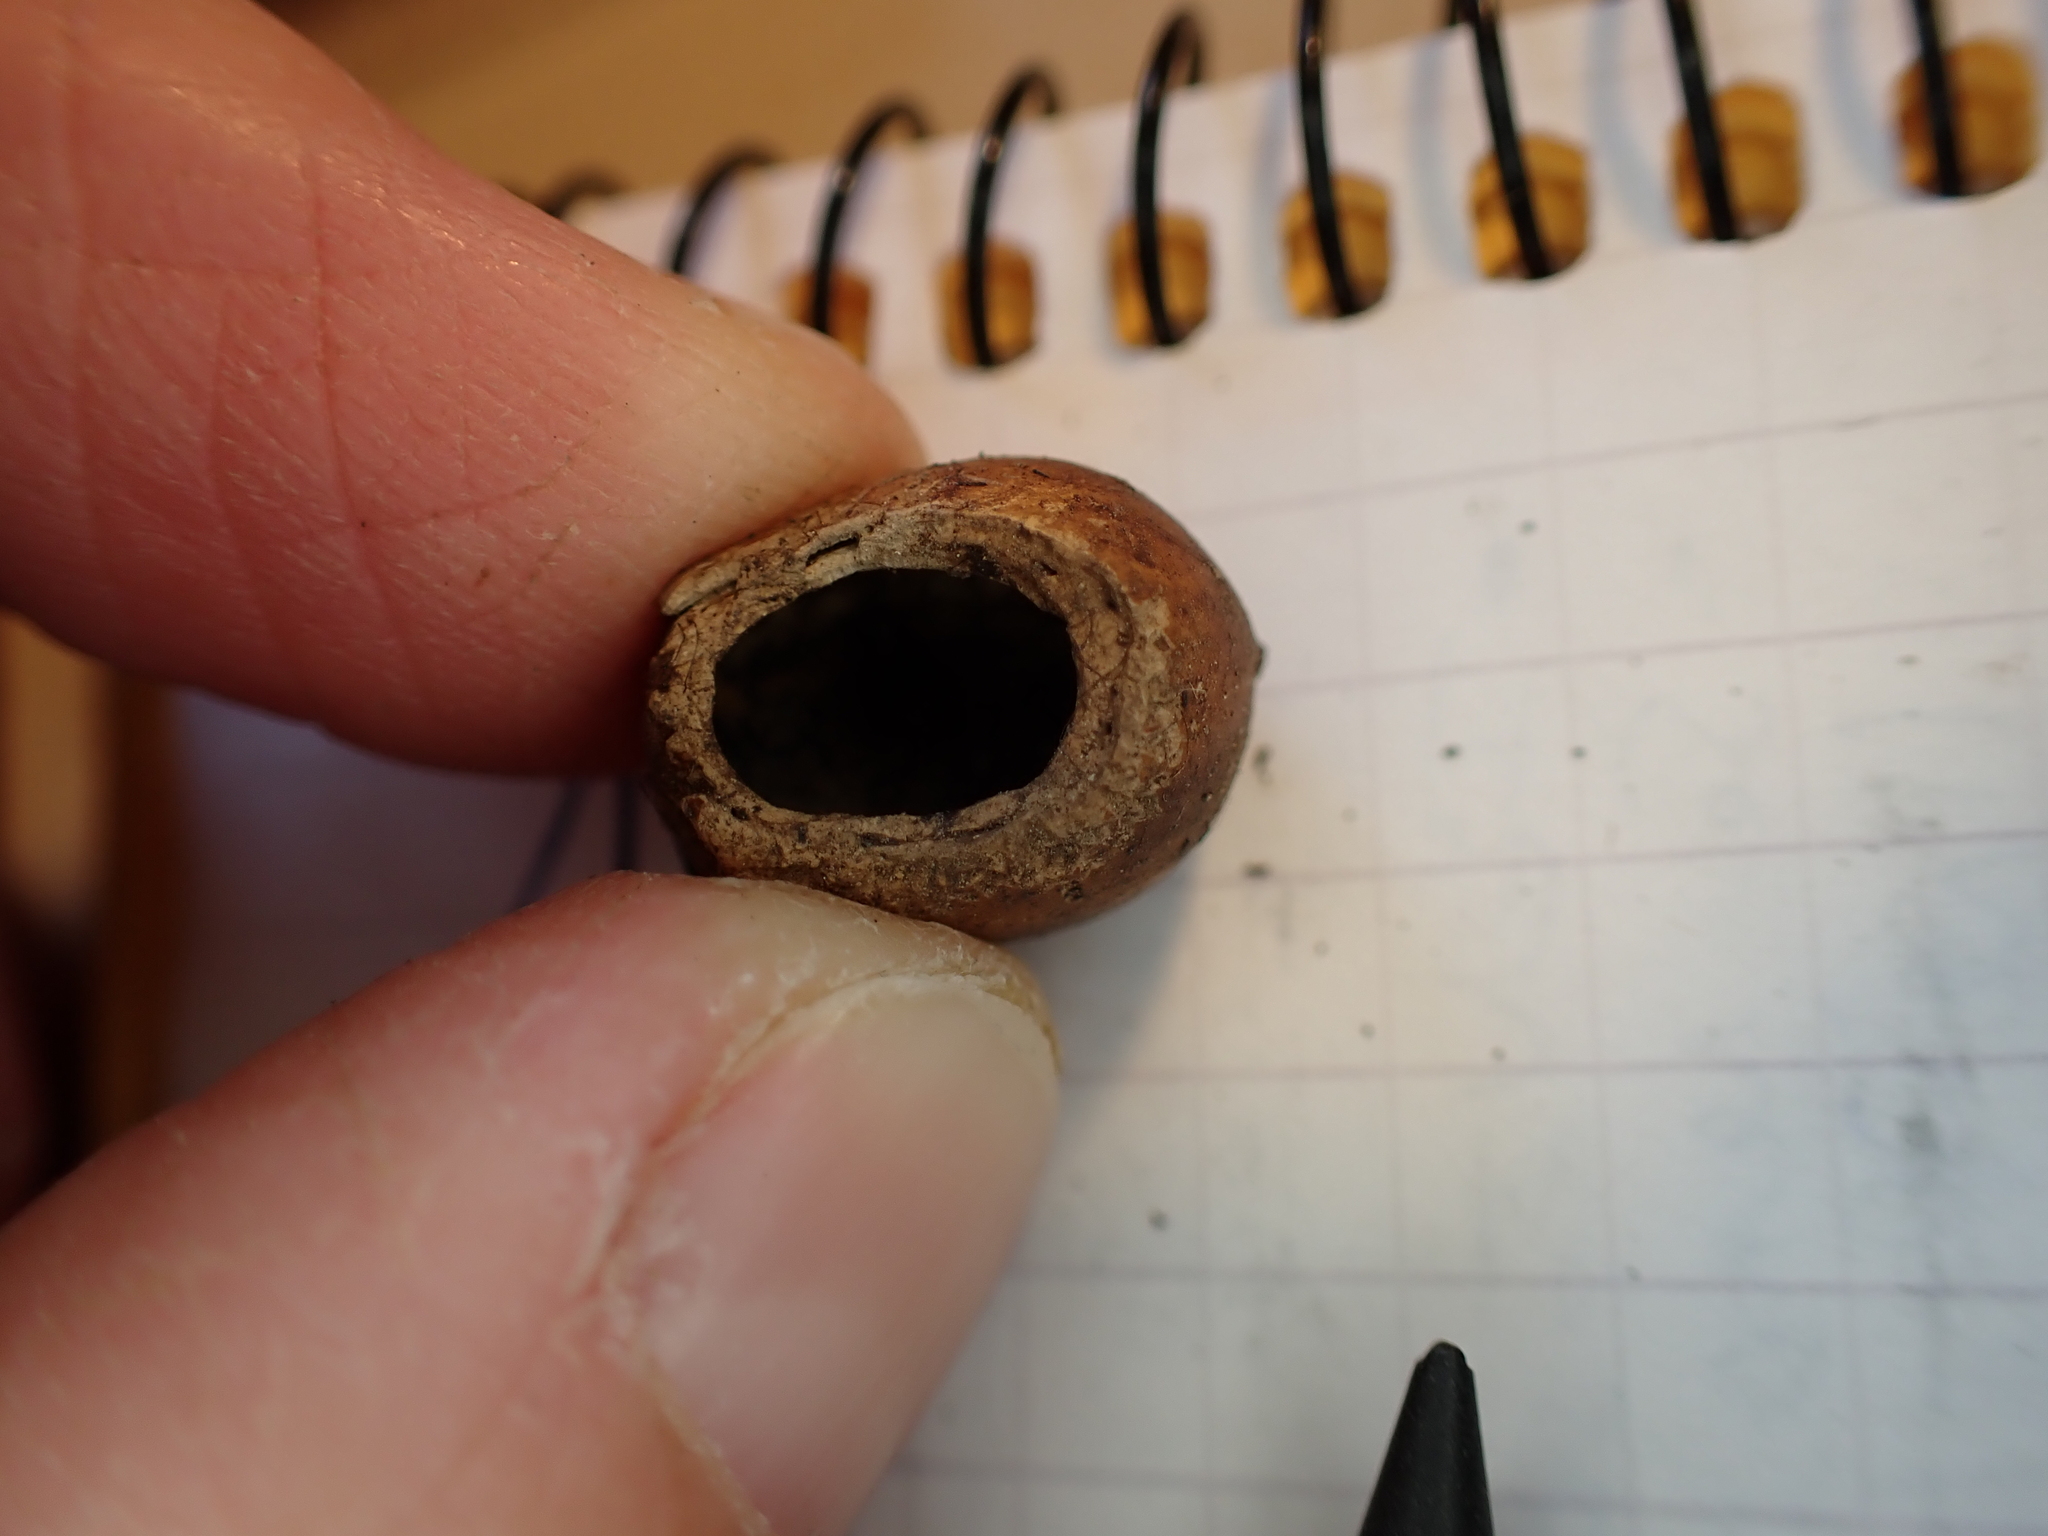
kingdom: Animalia
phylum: Chordata
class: Mammalia
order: Rodentia
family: Gliridae
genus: Muscardinus
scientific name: Muscardinus avellanarius
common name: Hazel dormouse
